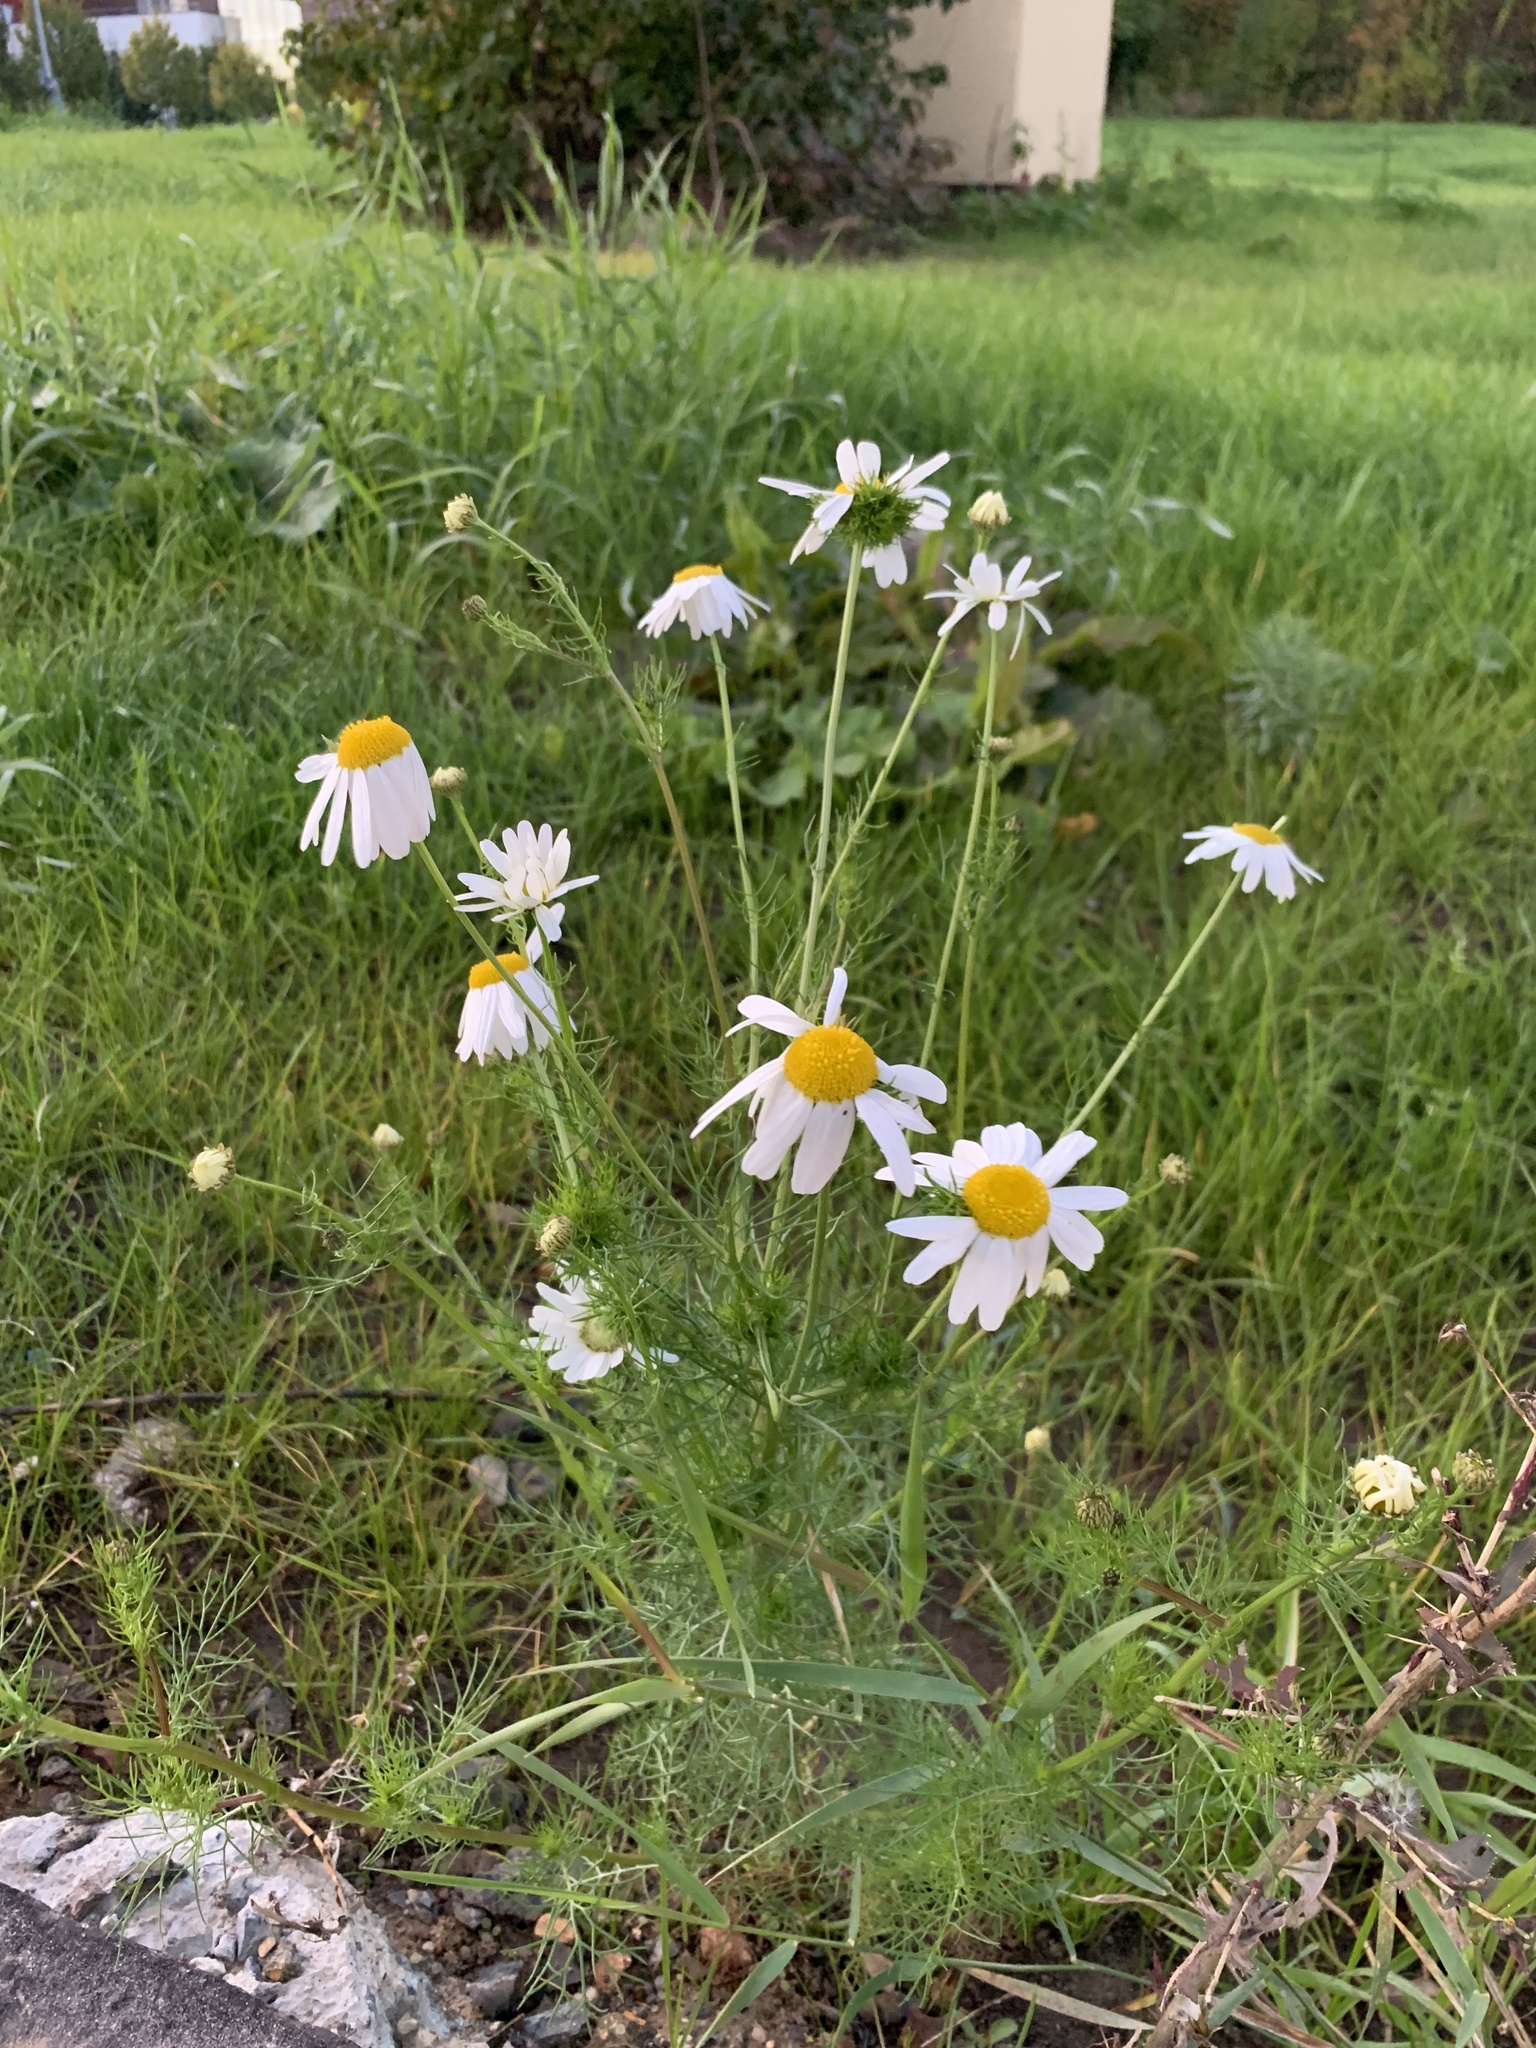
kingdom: Plantae
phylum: Tracheophyta
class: Magnoliopsida
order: Asterales
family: Asteraceae
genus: Tripleurospermum
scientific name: Tripleurospermum inodorum
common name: Scentless mayweed
